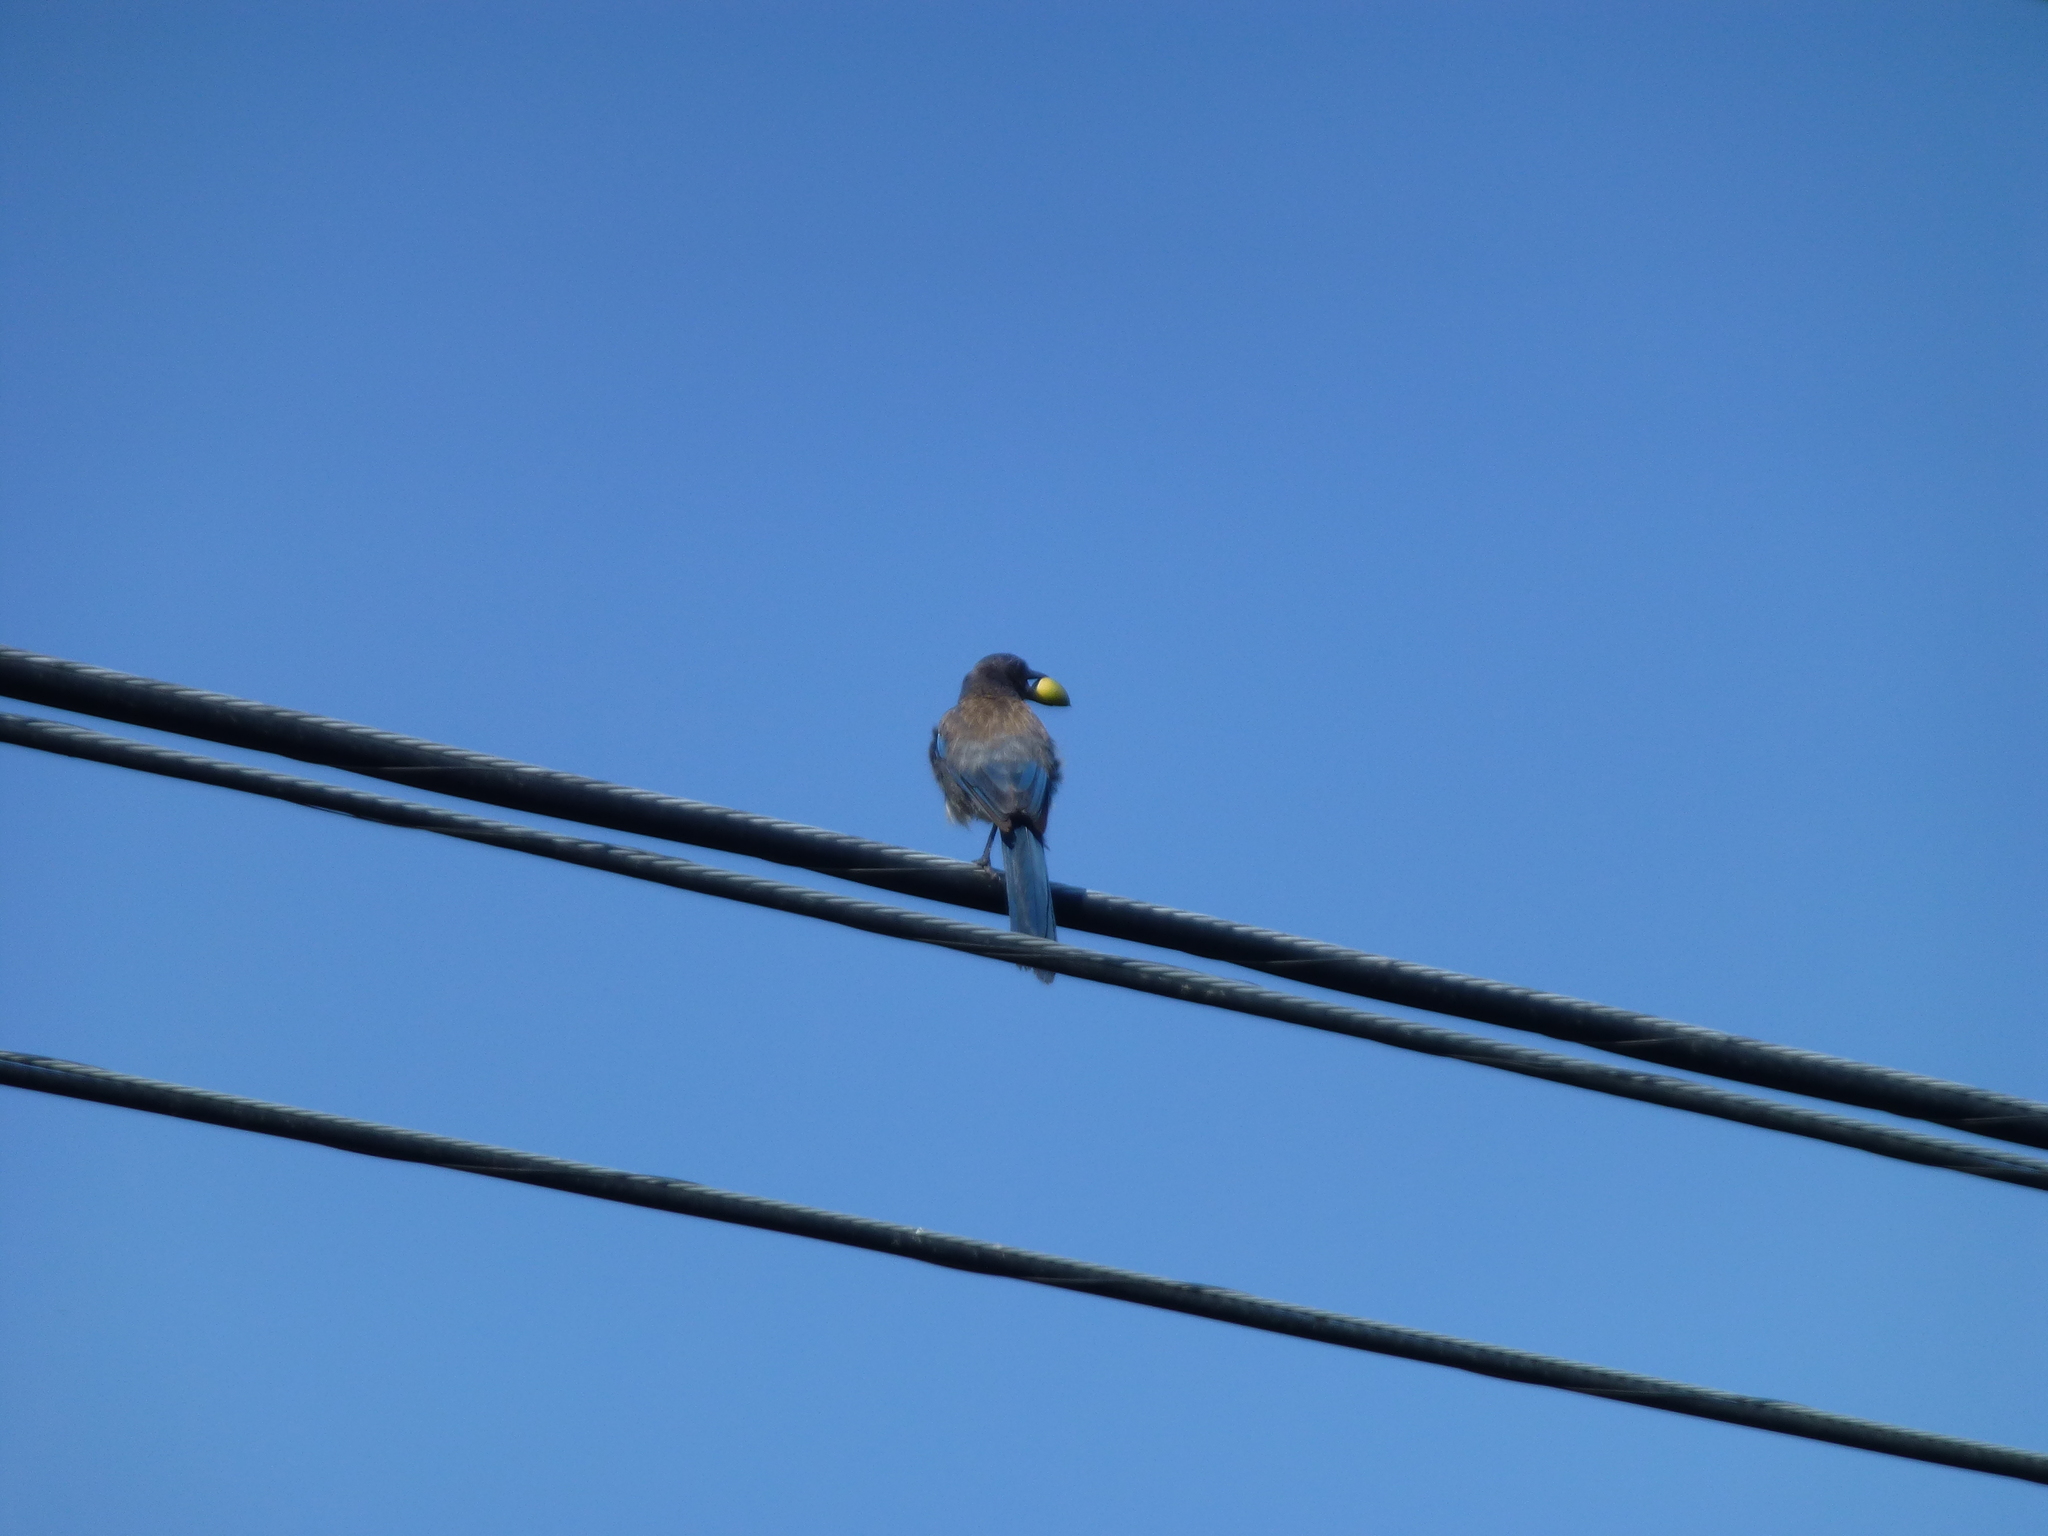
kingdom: Animalia
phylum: Chordata
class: Aves
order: Passeriformes
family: Corvidae
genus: Aphelocoma
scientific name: Aphelocoma californica
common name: California scrub-jay
